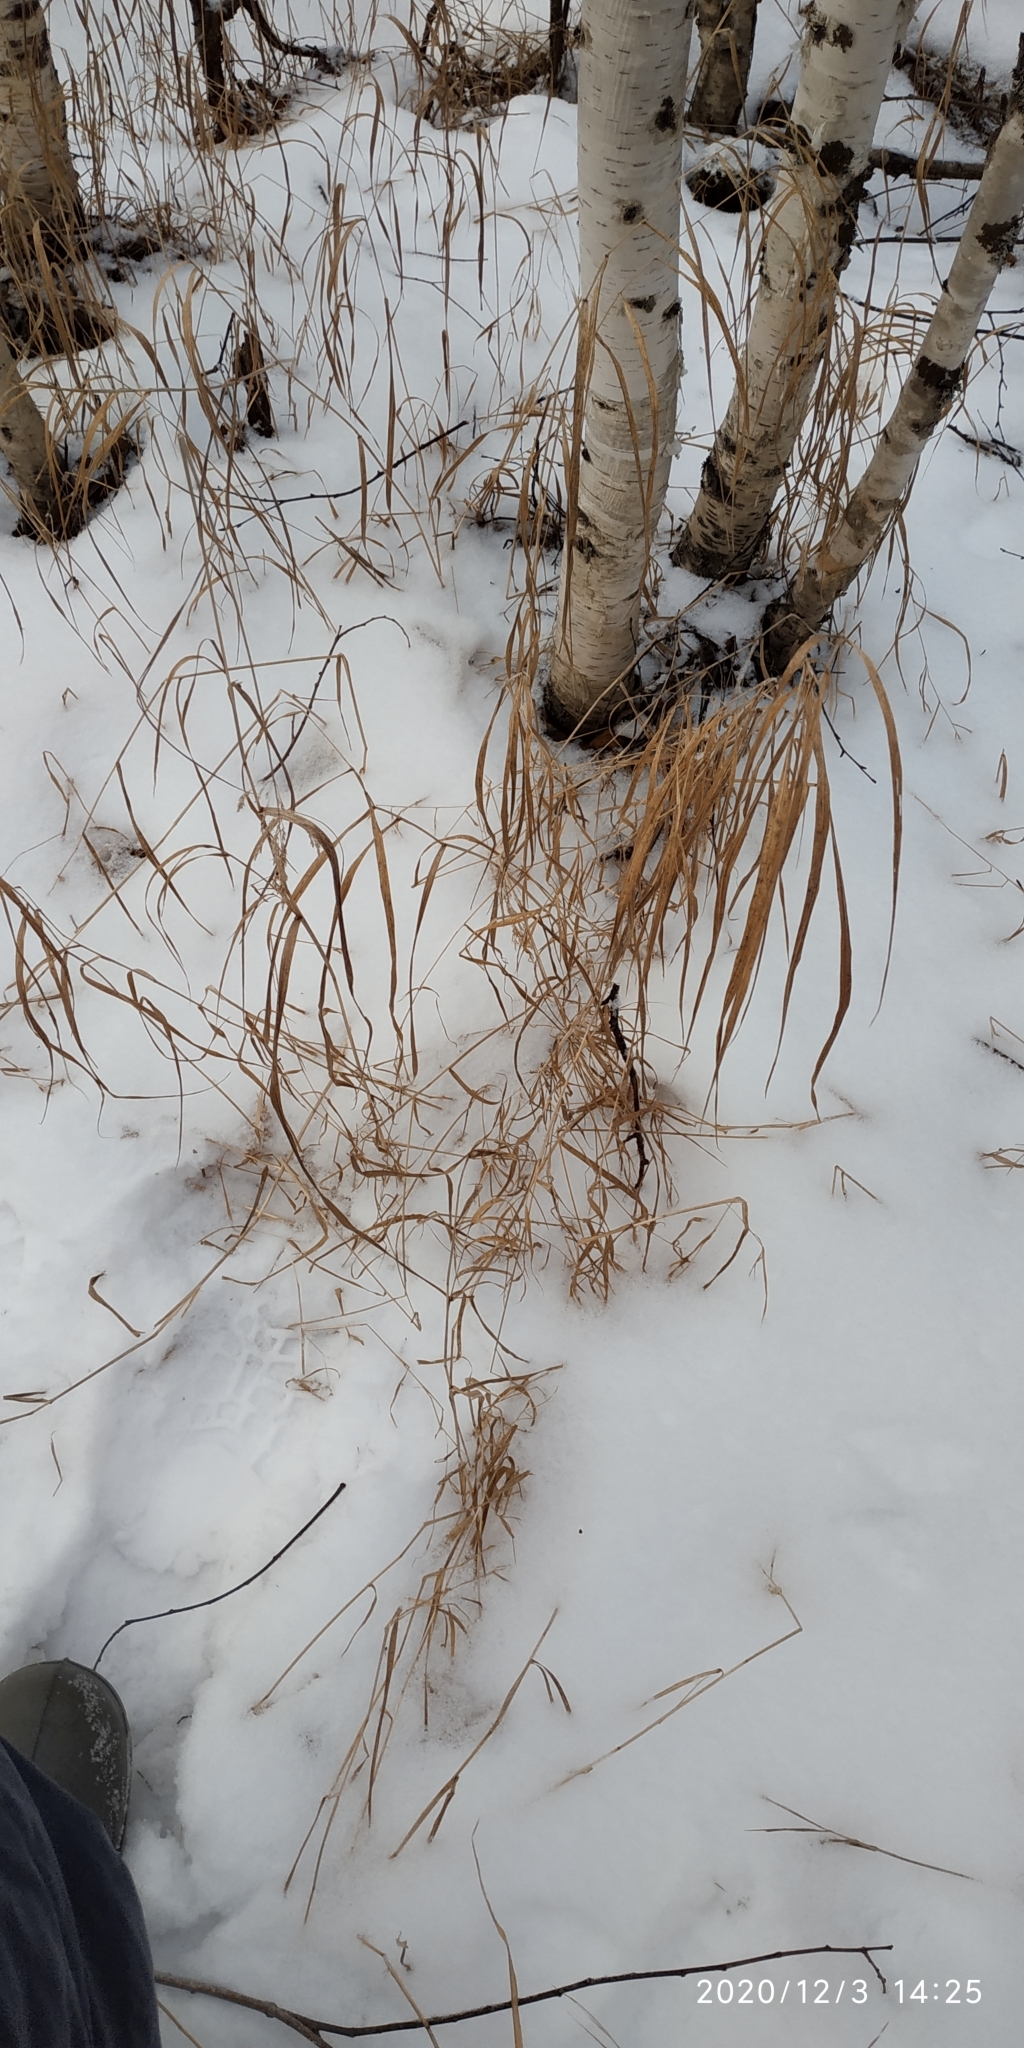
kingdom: Plantae
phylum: Tracheophyta
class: Liliopsida
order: Poales
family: Poaceae
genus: Calamagrostis
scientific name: Calamagrostis purpurea
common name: Scandinavian small-reed
